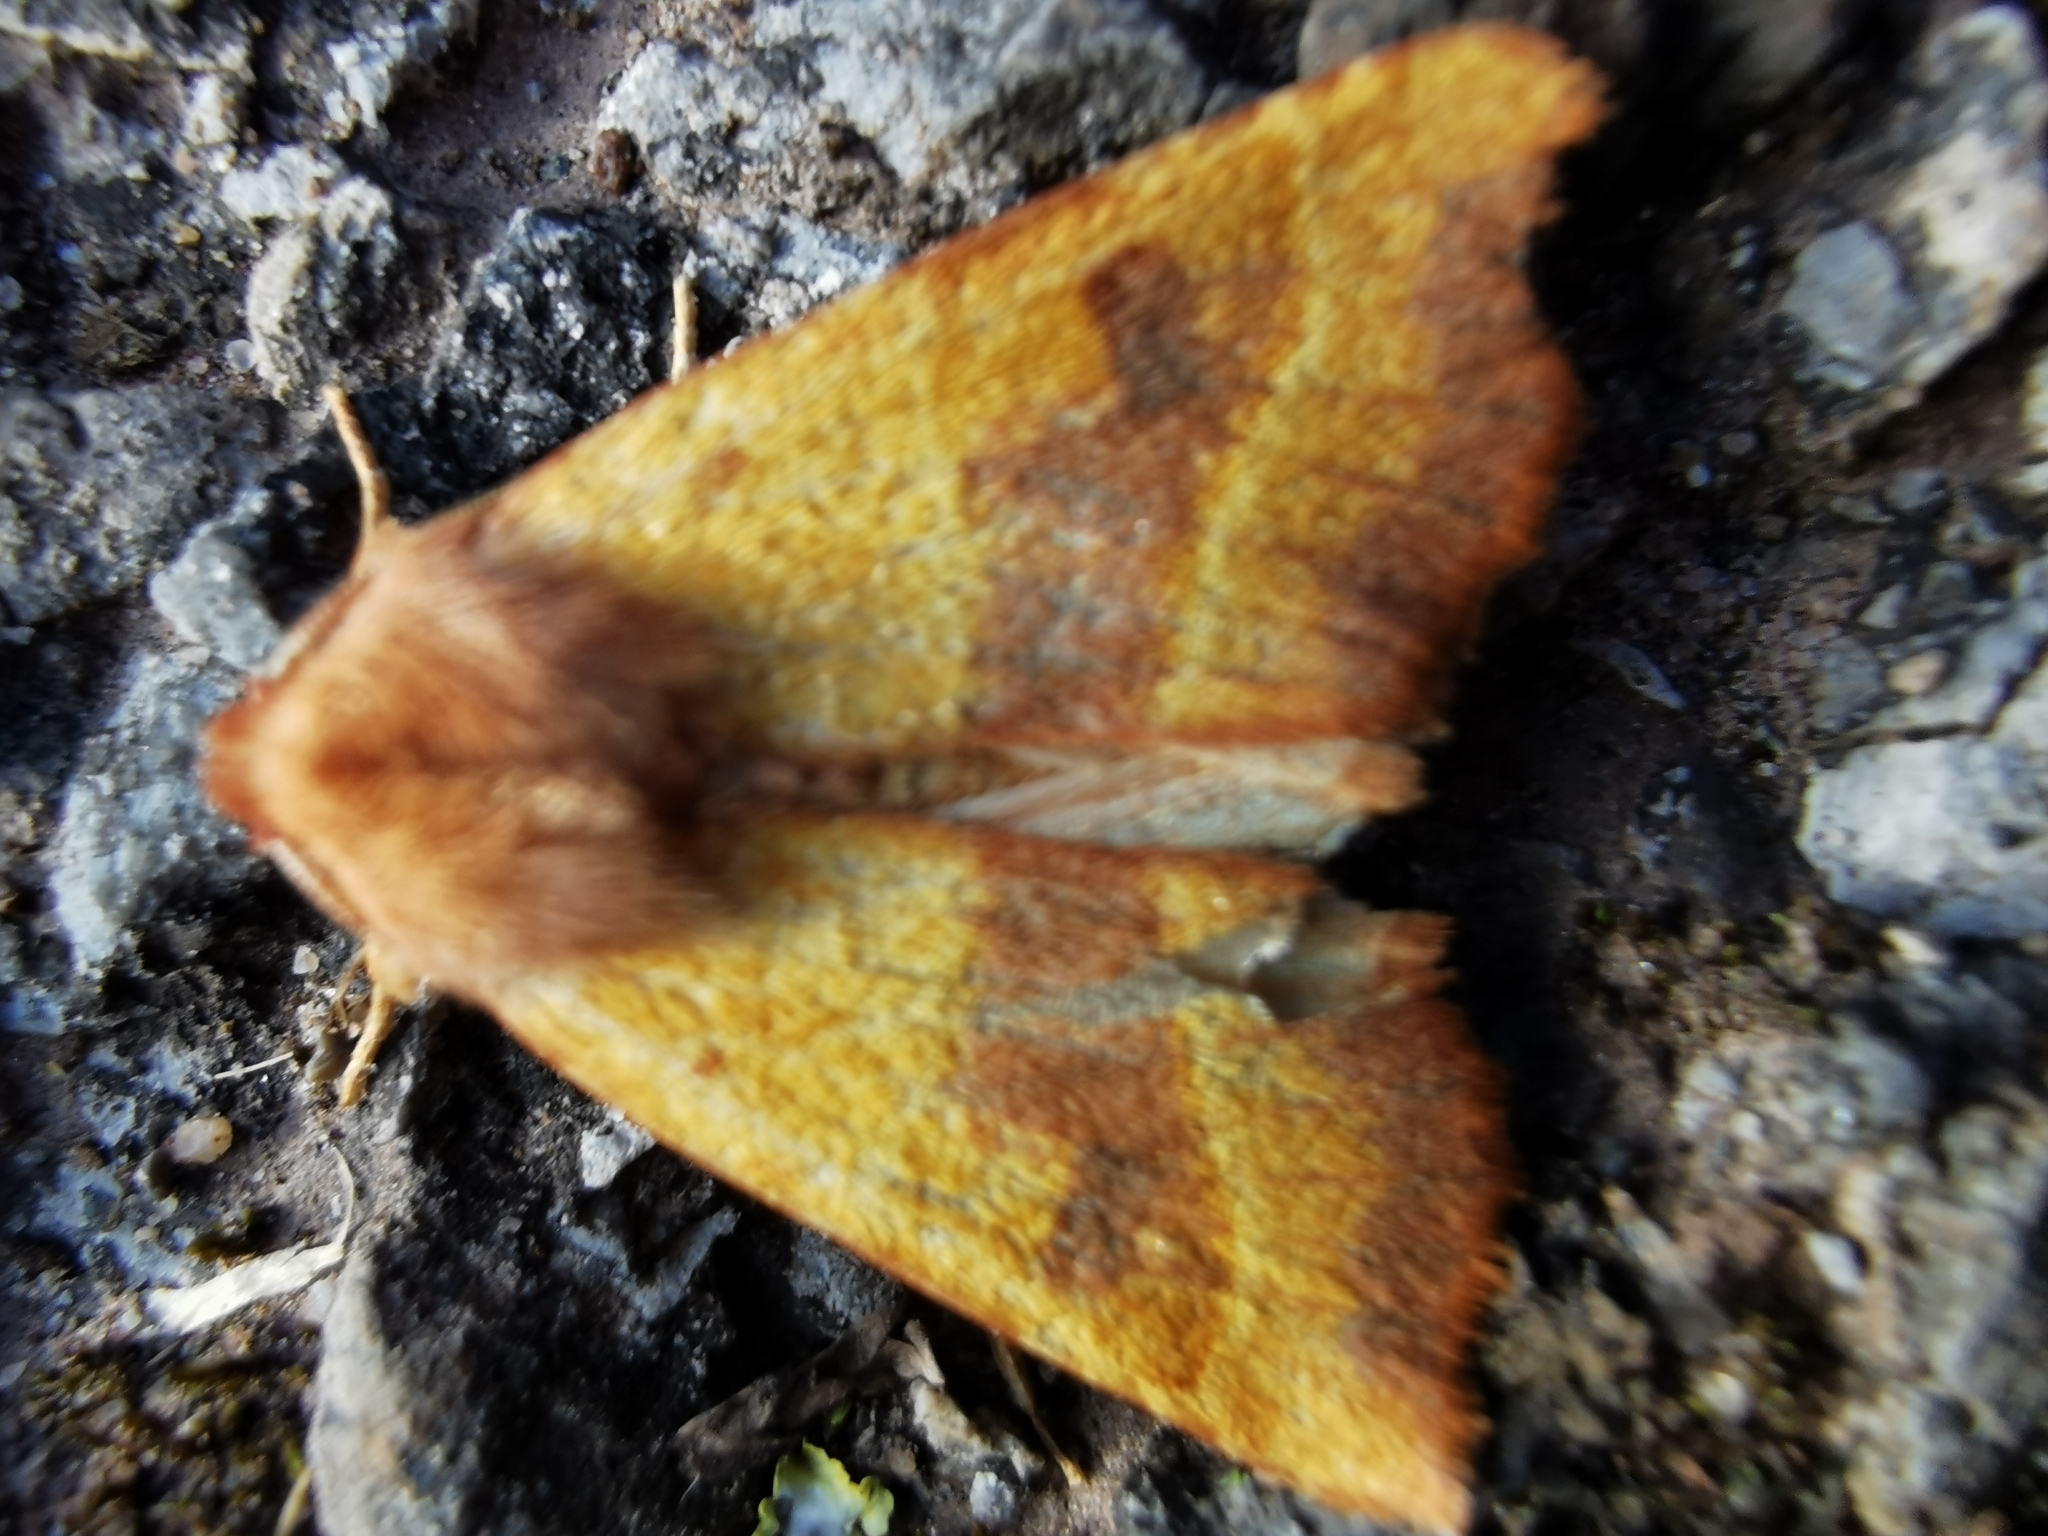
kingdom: Animalia
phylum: Arthropoda
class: Insecta
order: Lepidoptera
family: Noctuidae
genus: Atethmia
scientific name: Atethmia centrago
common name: Centre-barred sallow
